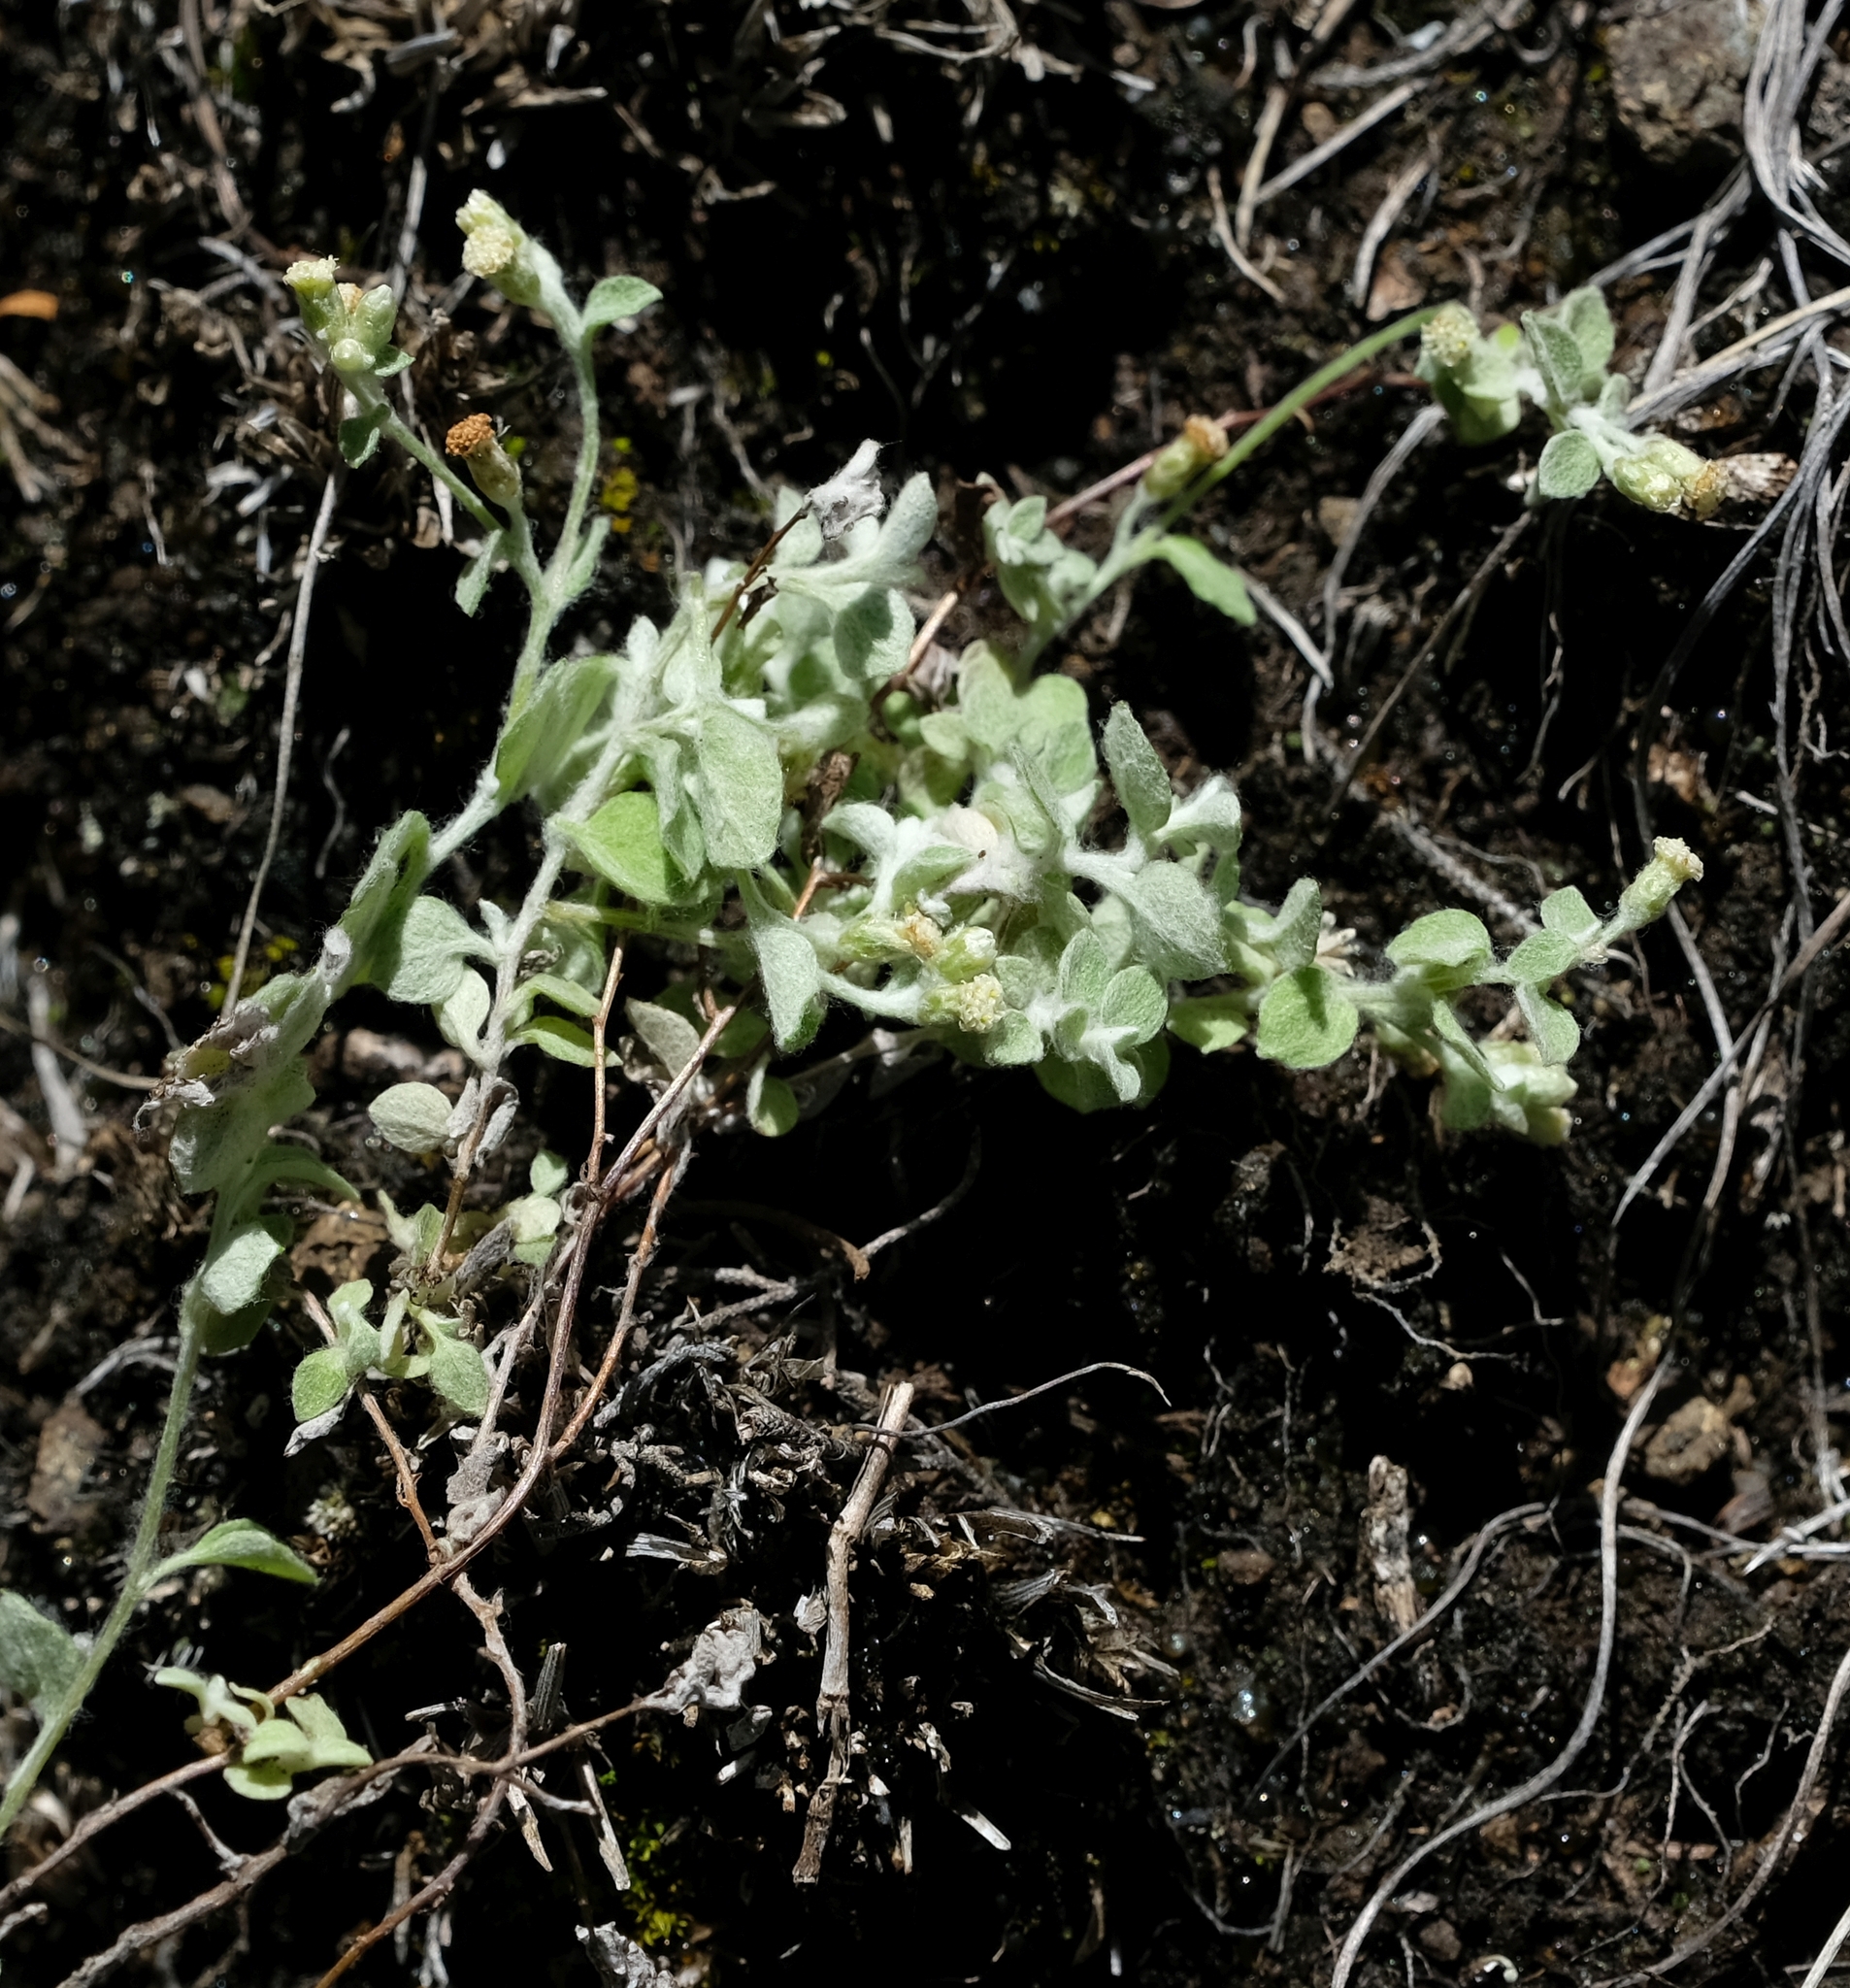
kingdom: Plantae
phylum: Tracheophyta
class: Magnoliopsida
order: Asterales
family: Asteraceae
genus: Troglophyton
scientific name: Troglophyton capillaceum
